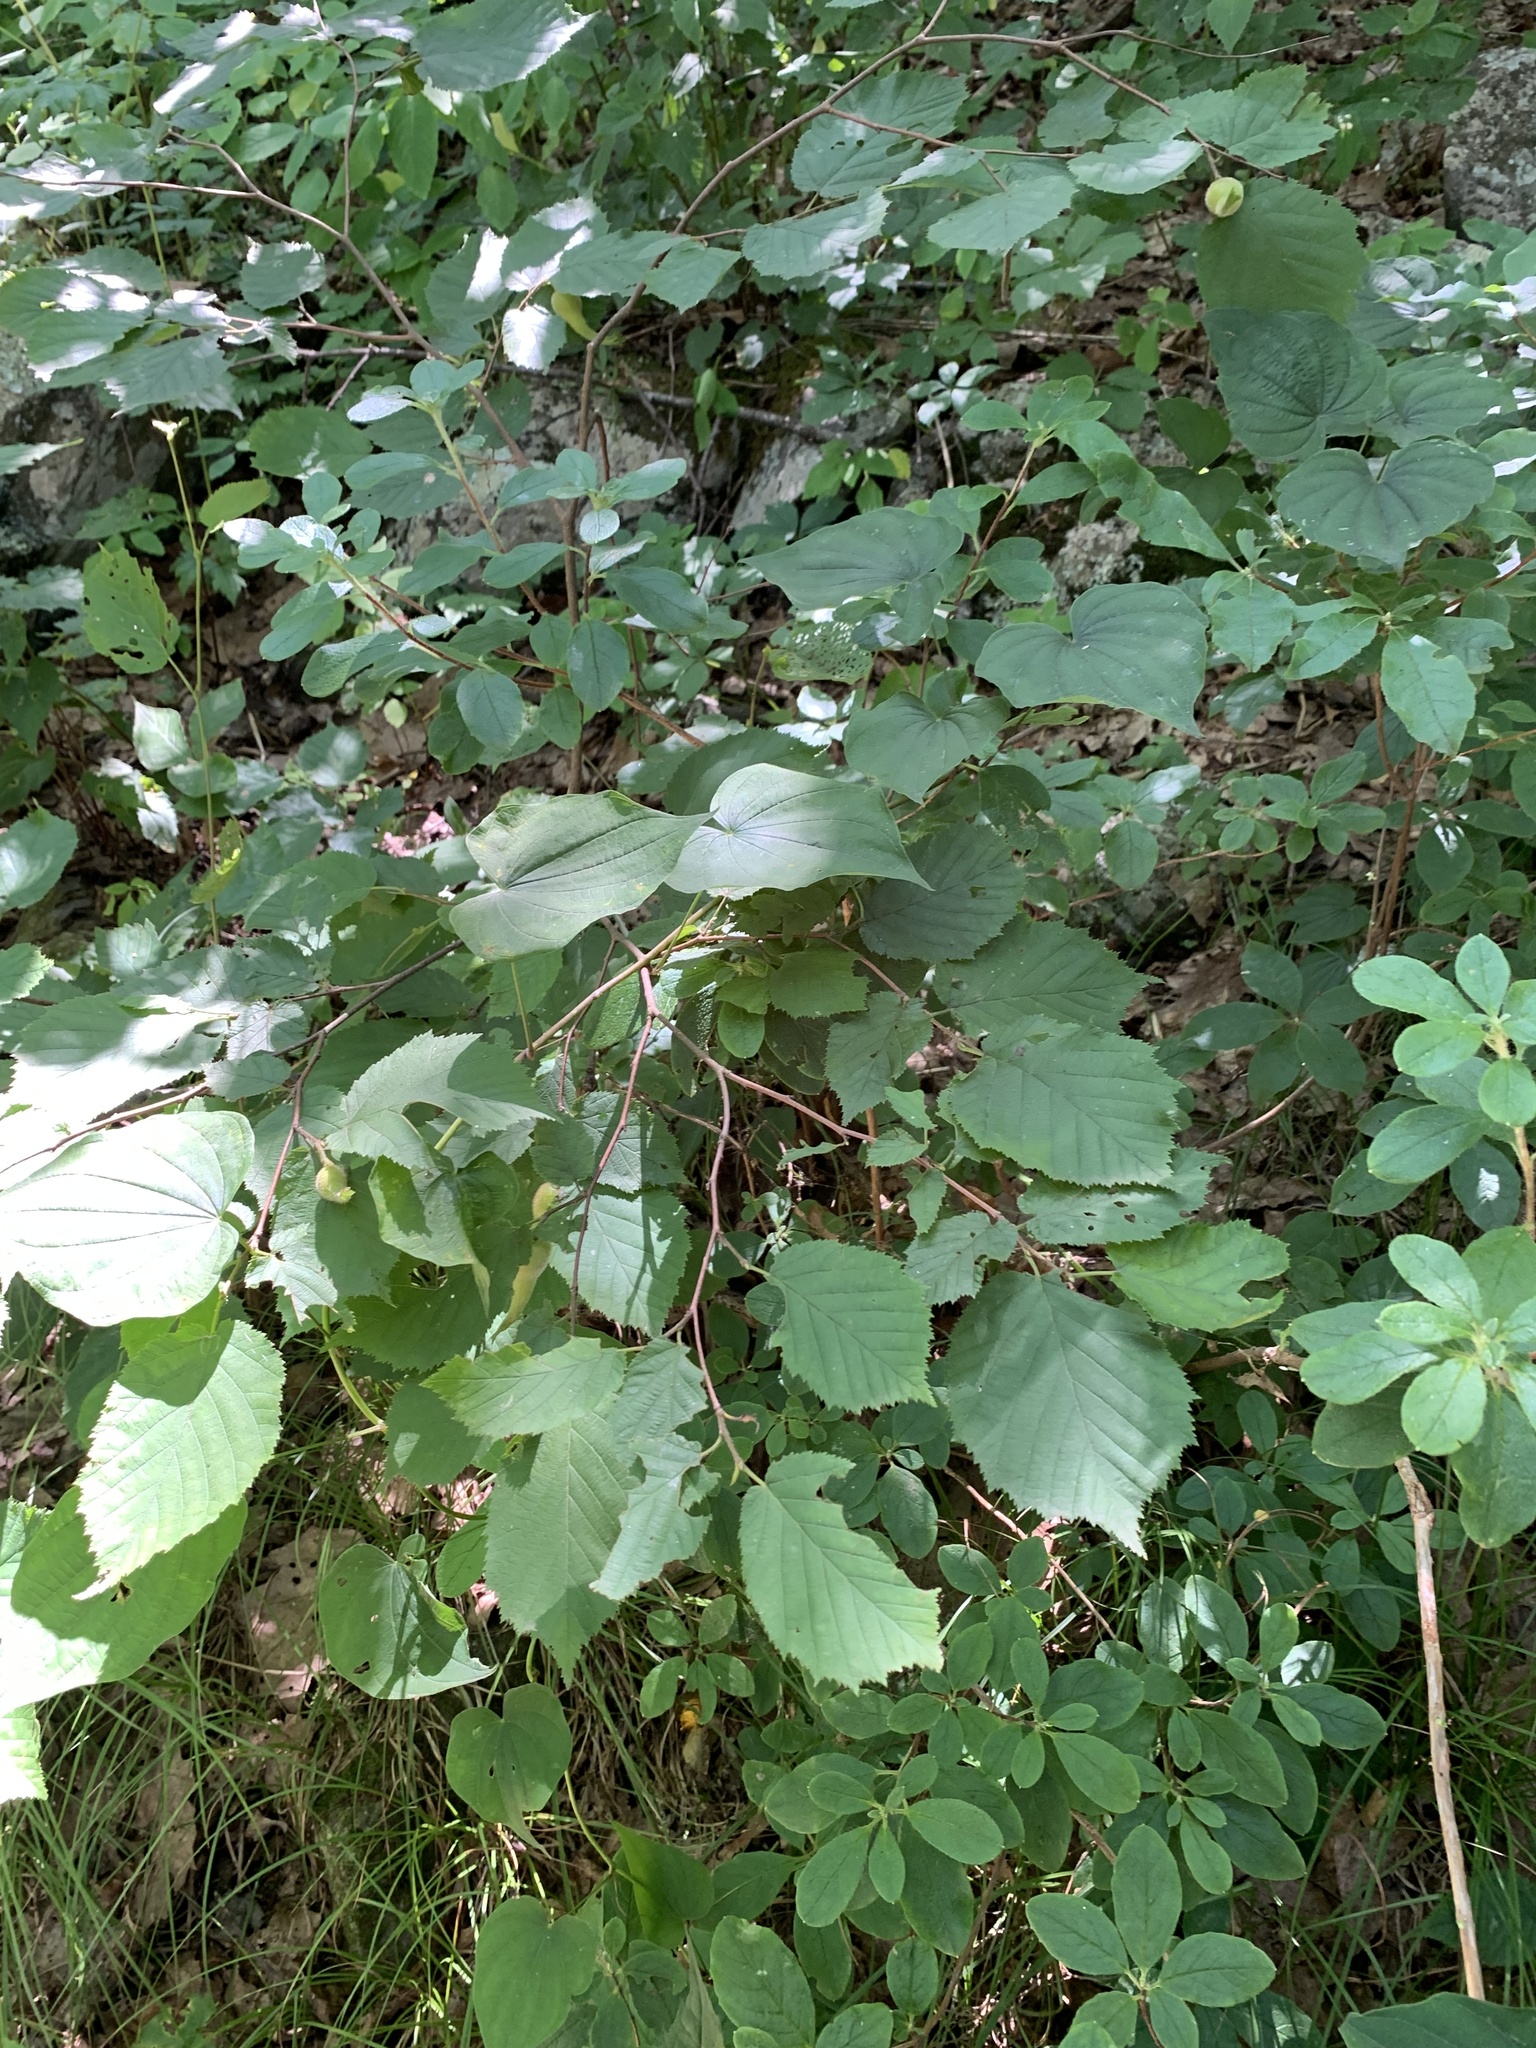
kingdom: Plantae
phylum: Tracheophyta
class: Magnoliopsida
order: Fagales
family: Betulaceae
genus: Corylus
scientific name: Corylus cornuta
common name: Beaked hazel
